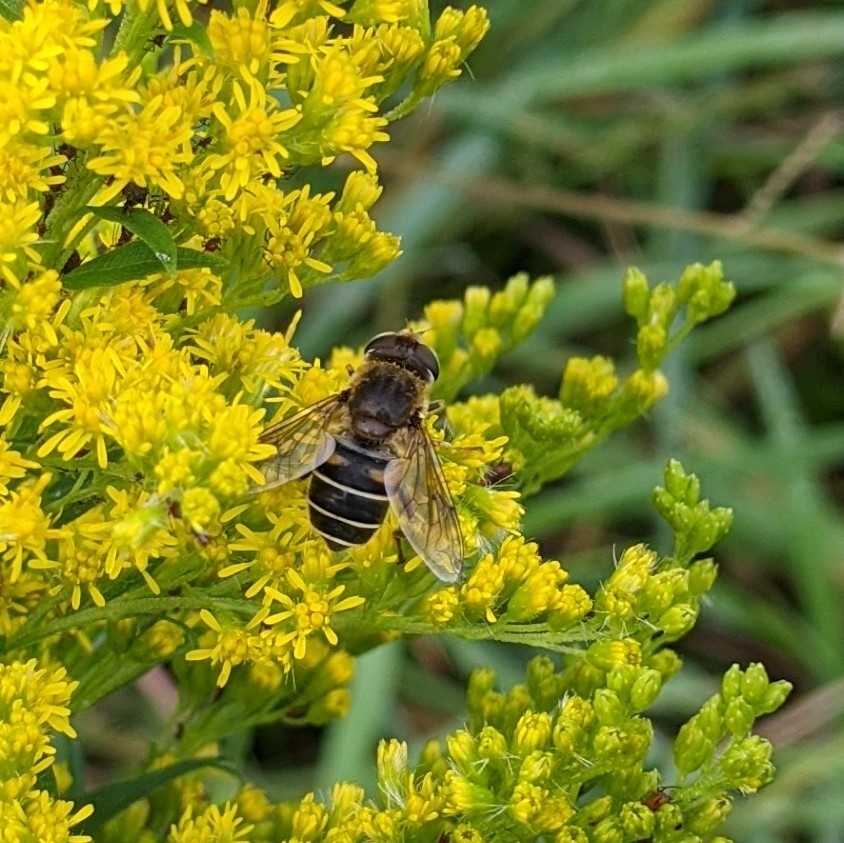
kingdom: Animalia
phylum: Arthropoda
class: Insecta
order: Diptera
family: Syrphidae
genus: Eristalis
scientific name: Eristalis arbustorum
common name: Hover fly
